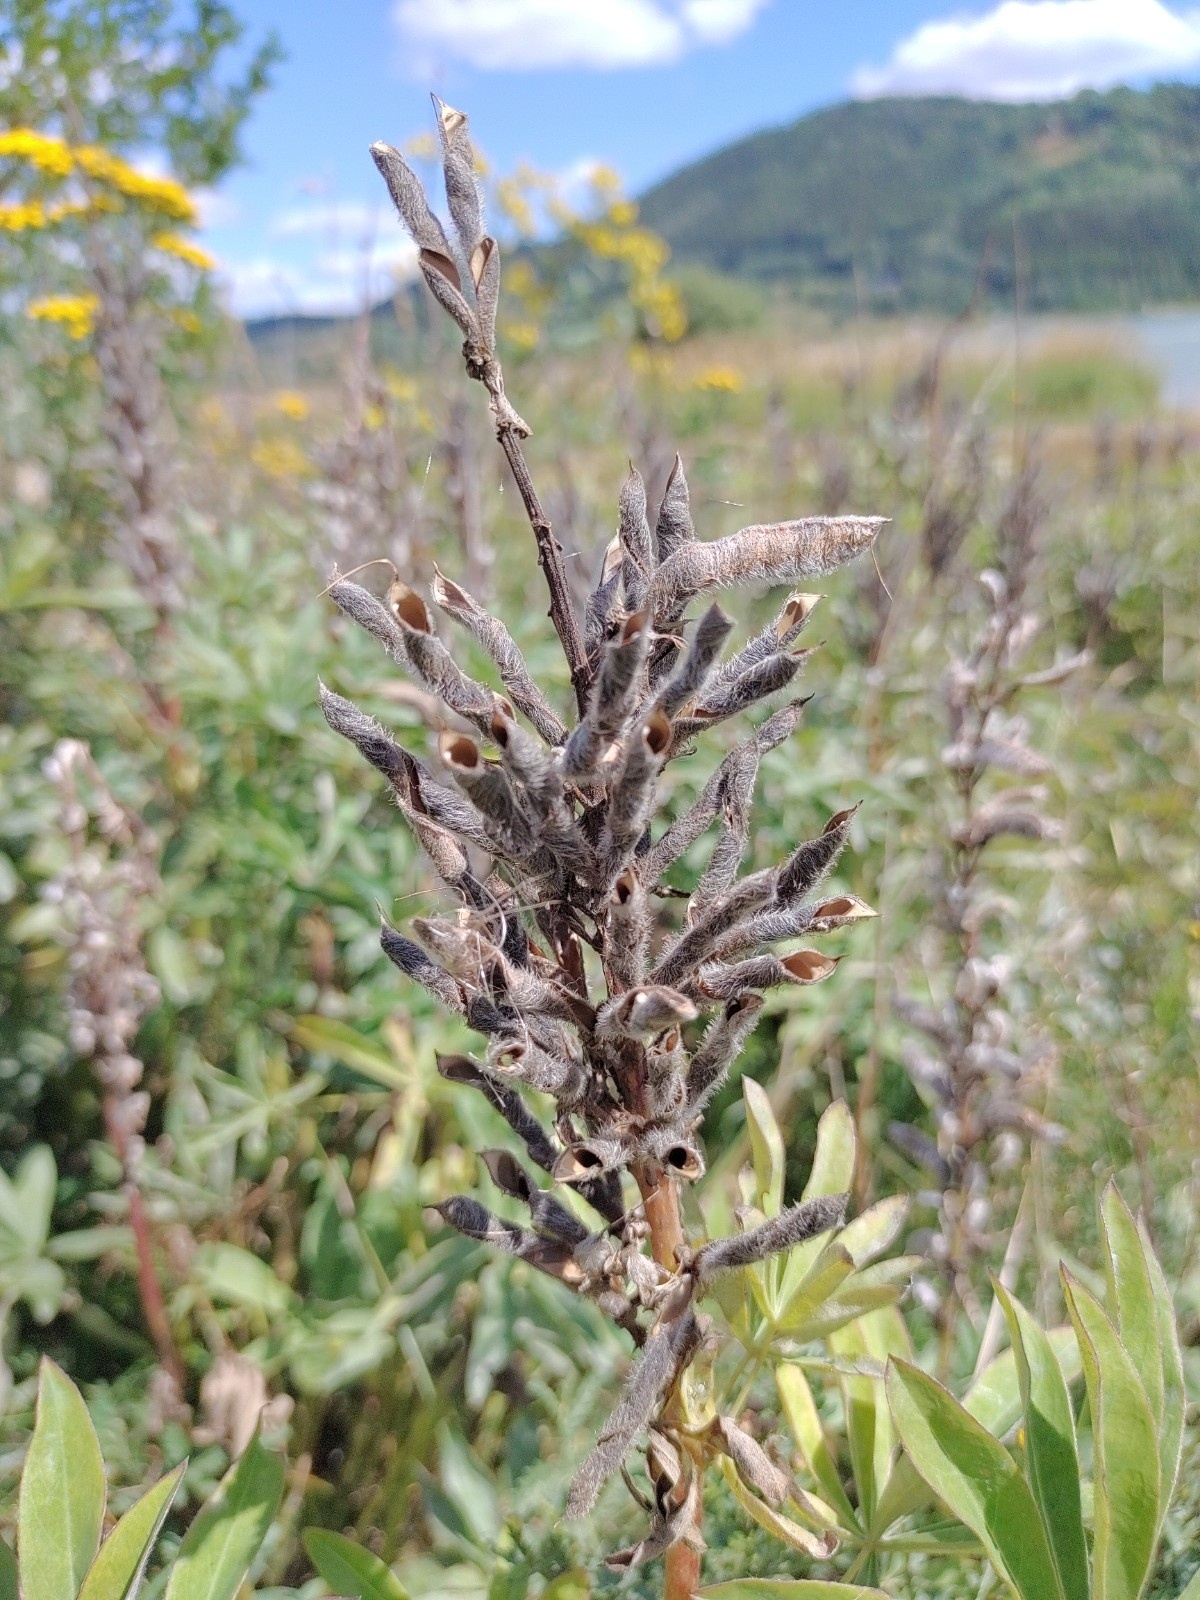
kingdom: Plantae
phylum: Tracheophyta
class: Magnoliopsida
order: Fabales
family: Fabaceae
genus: Lupinus
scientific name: Lupinus polyphyllus
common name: Garden lupin
